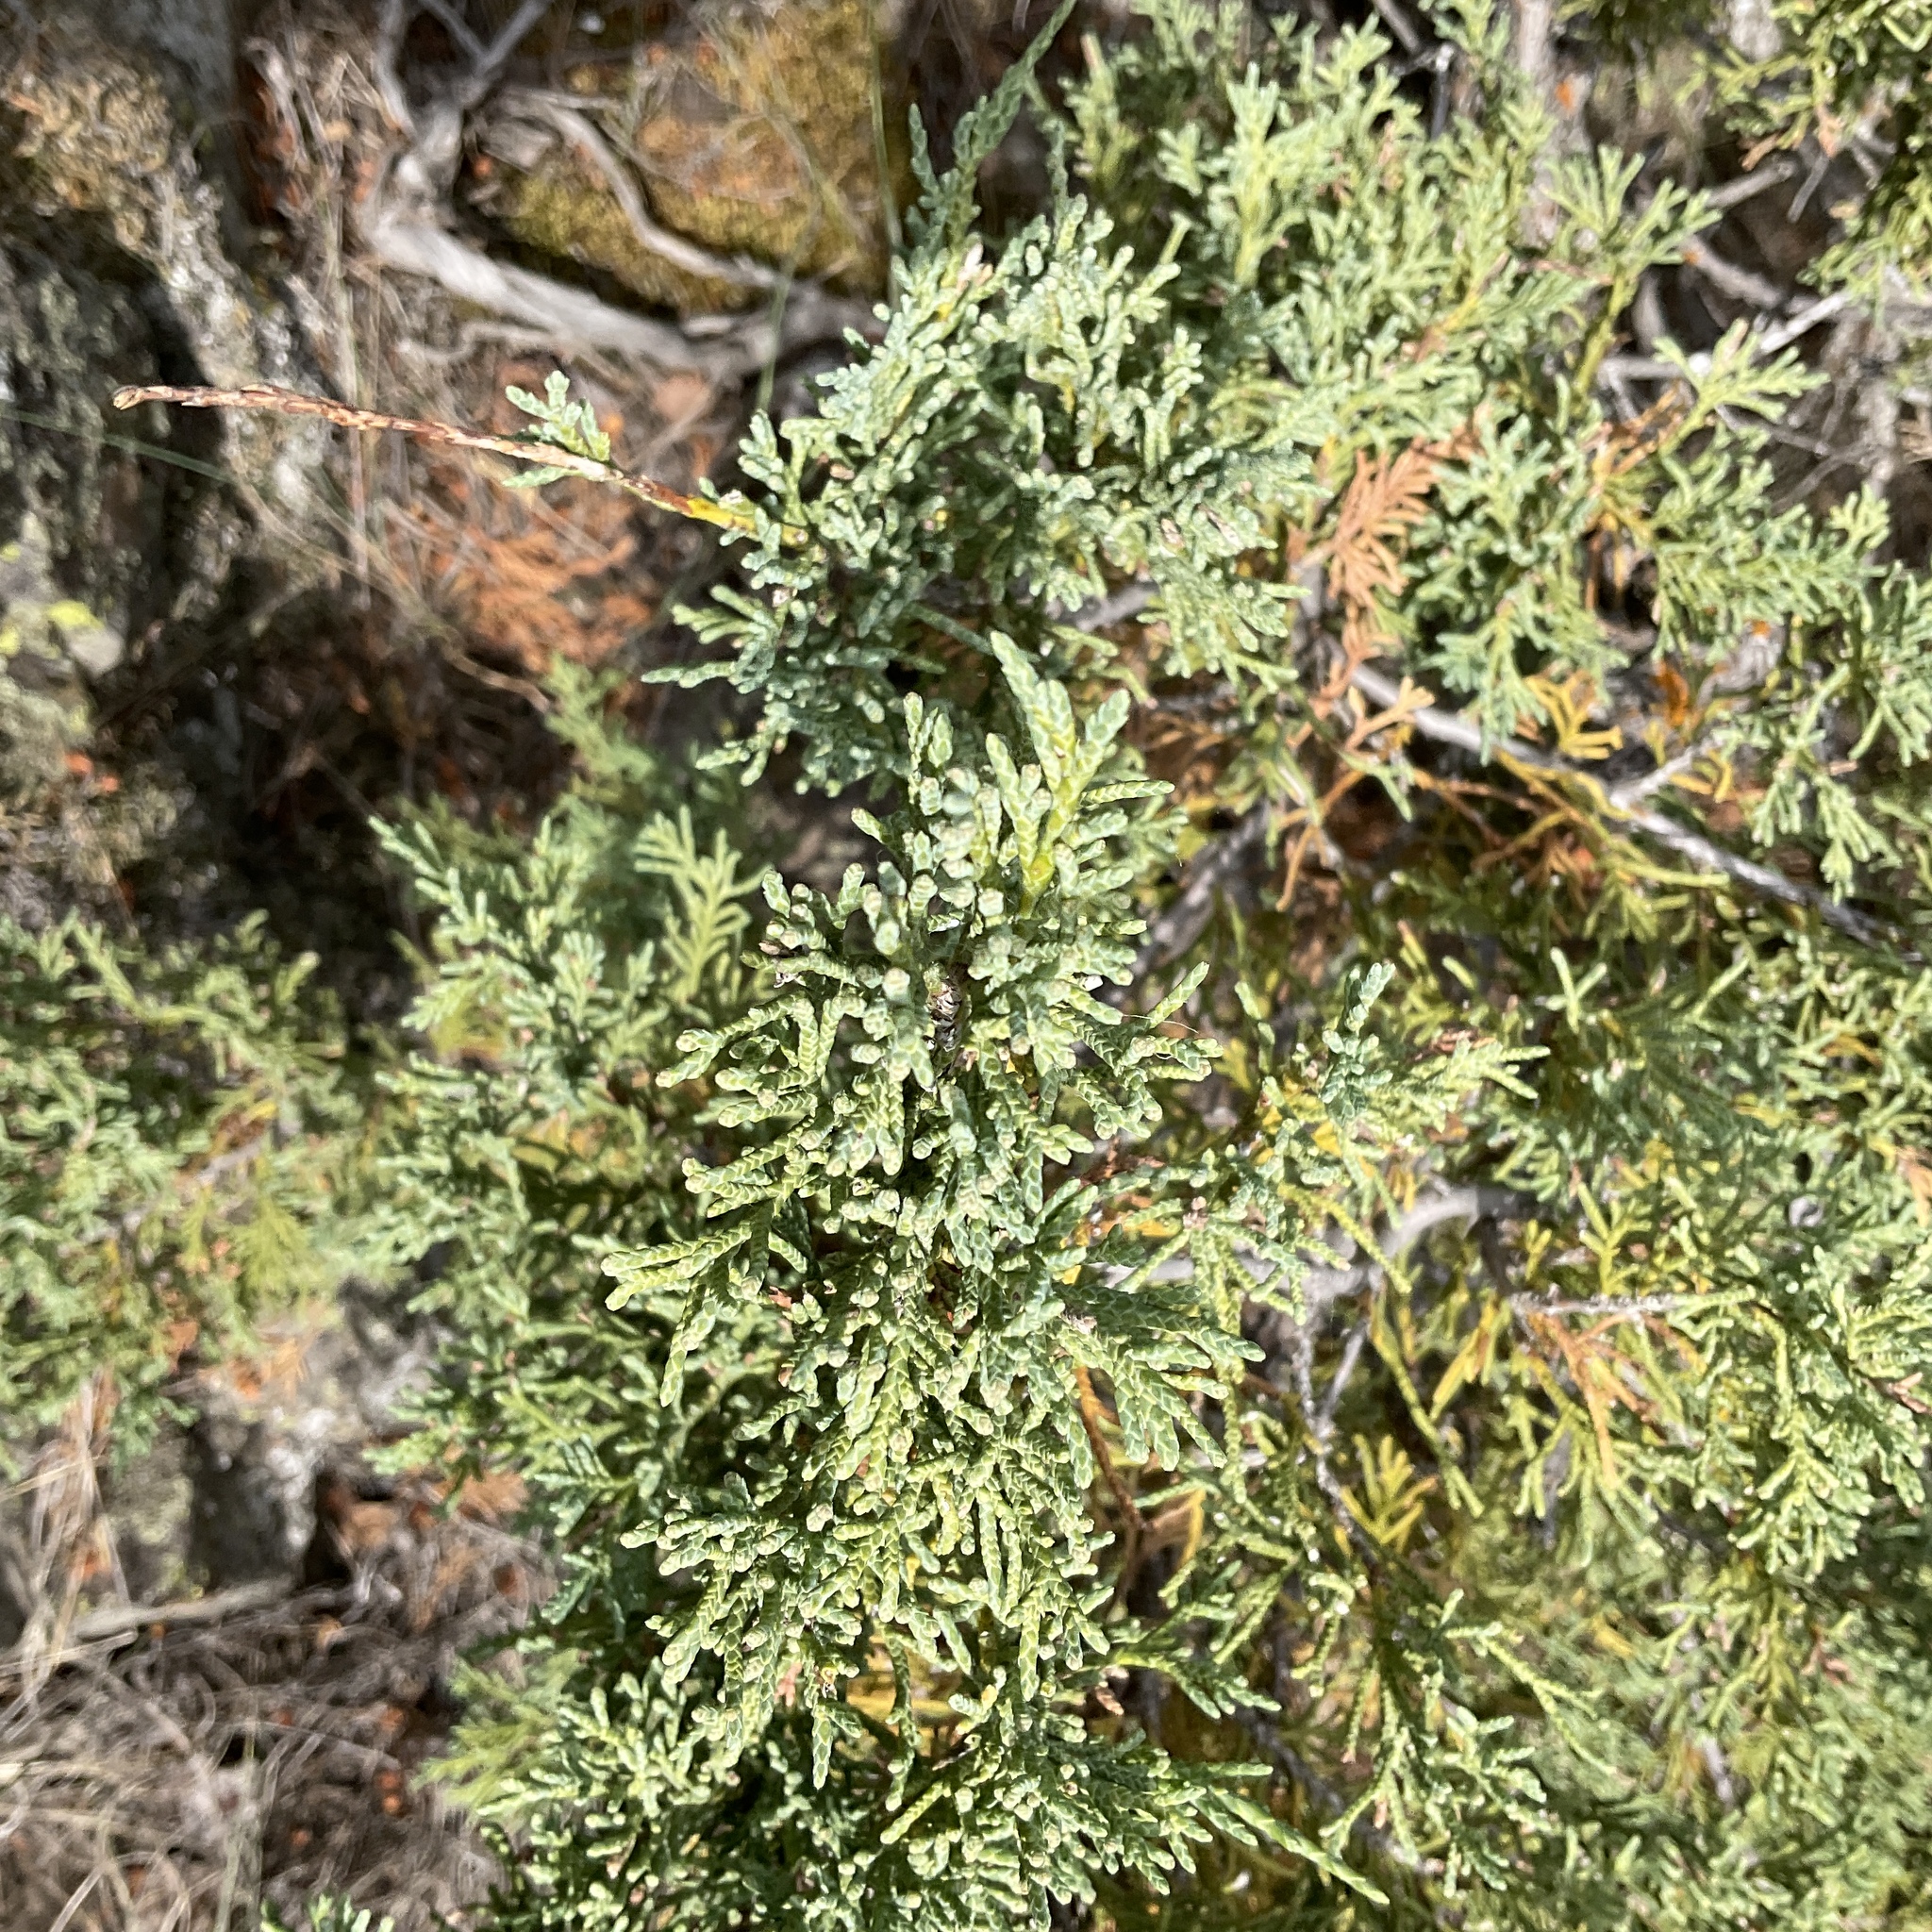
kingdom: Plantae
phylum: Tracheophyta
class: Pinopsida
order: Pinales
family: Cupressaceae
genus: Juniperus
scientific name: Juniperus scopulorum
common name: Rocky mountain juniper
